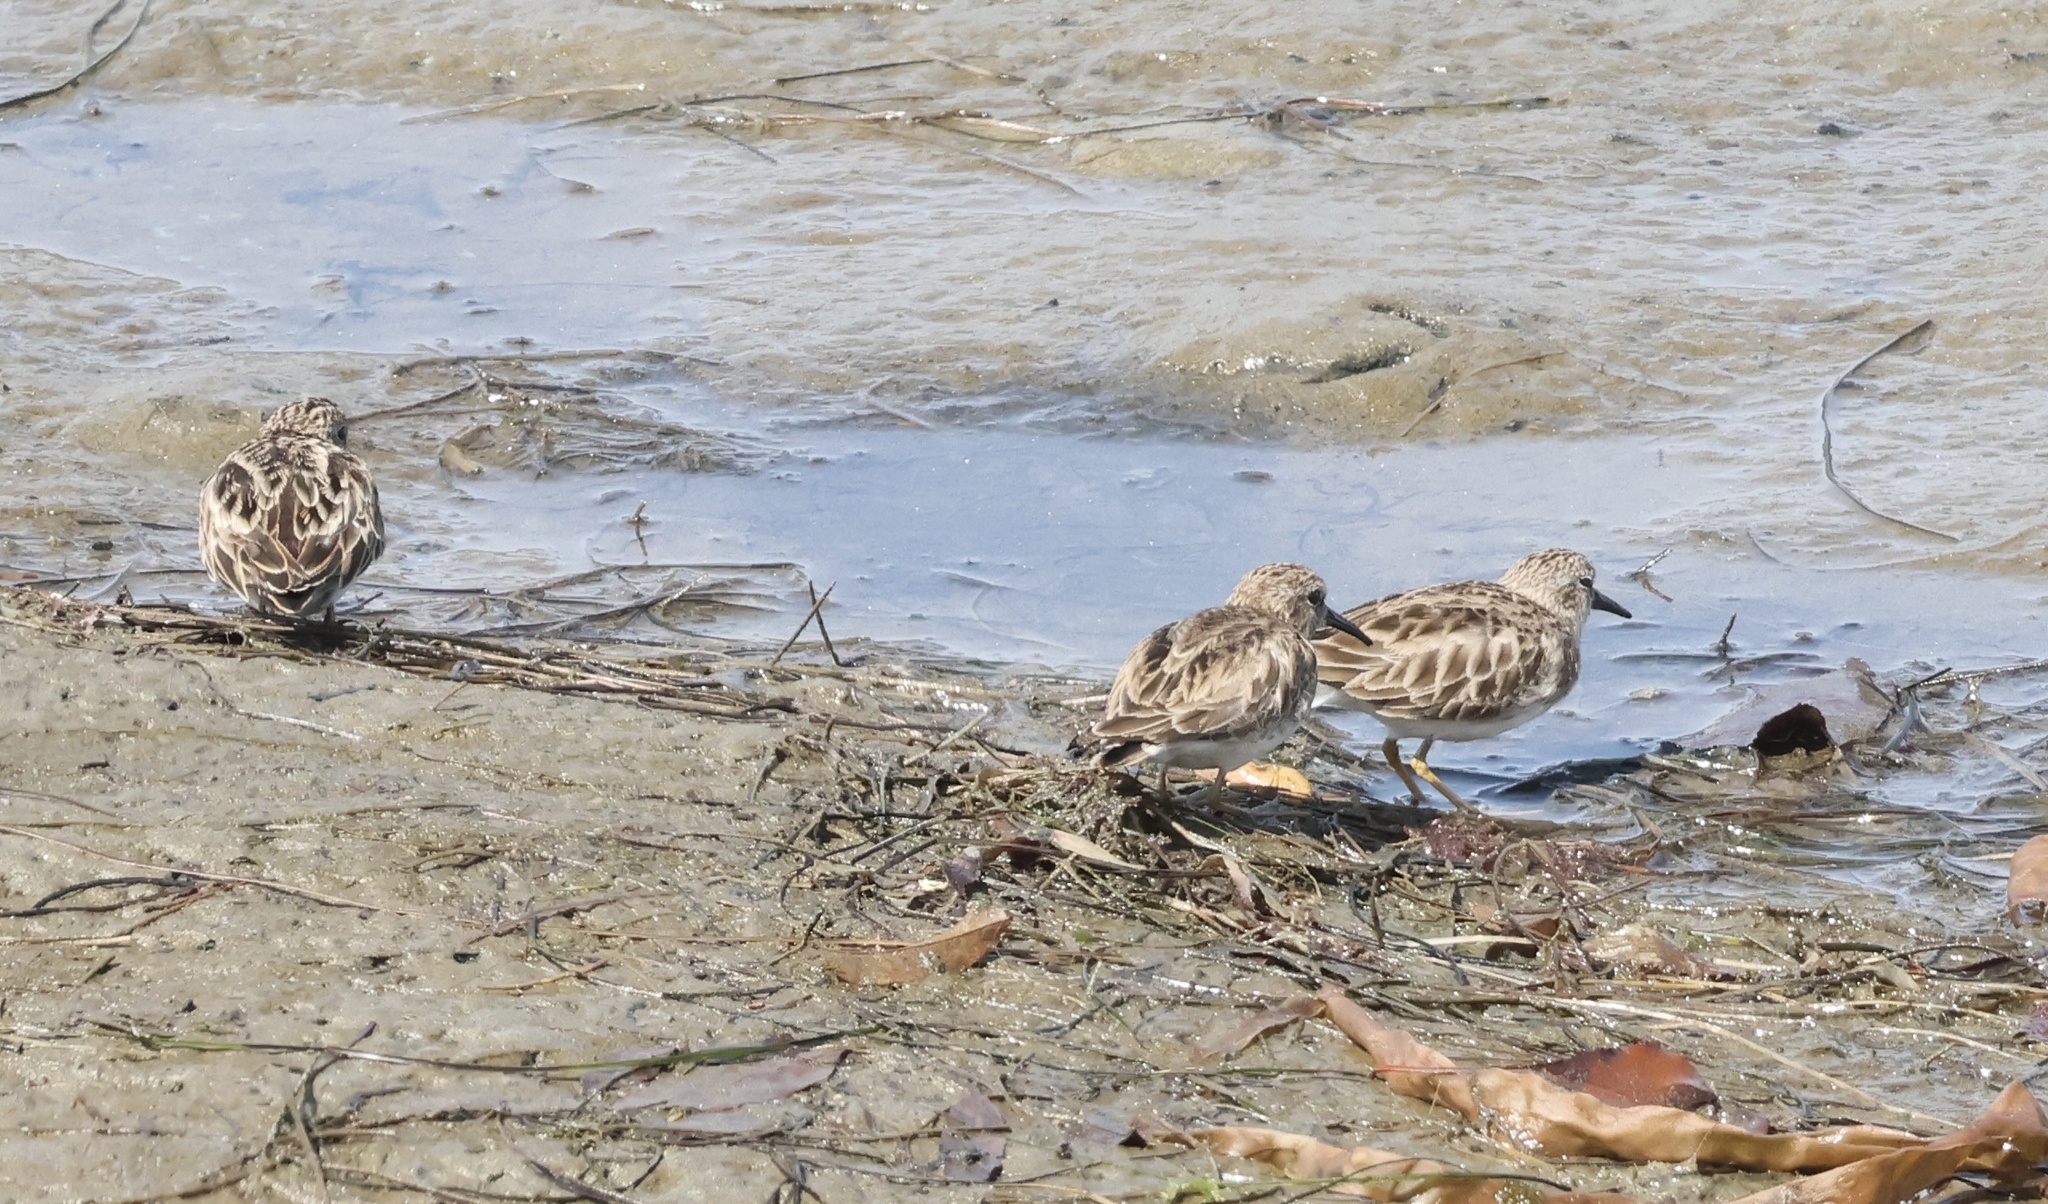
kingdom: Animalia
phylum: Chordata
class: Aves
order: Charadriiformes
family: Scolopacidae
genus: Calidris
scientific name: Calidris minutilla
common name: Least sandpiper
